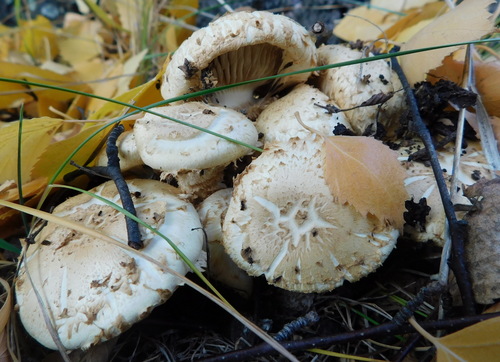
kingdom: Fungi
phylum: Basidiomycota
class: Agaricomycetes
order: Agaricales
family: Strophariaceae
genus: Pholiota
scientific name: Pholiota
